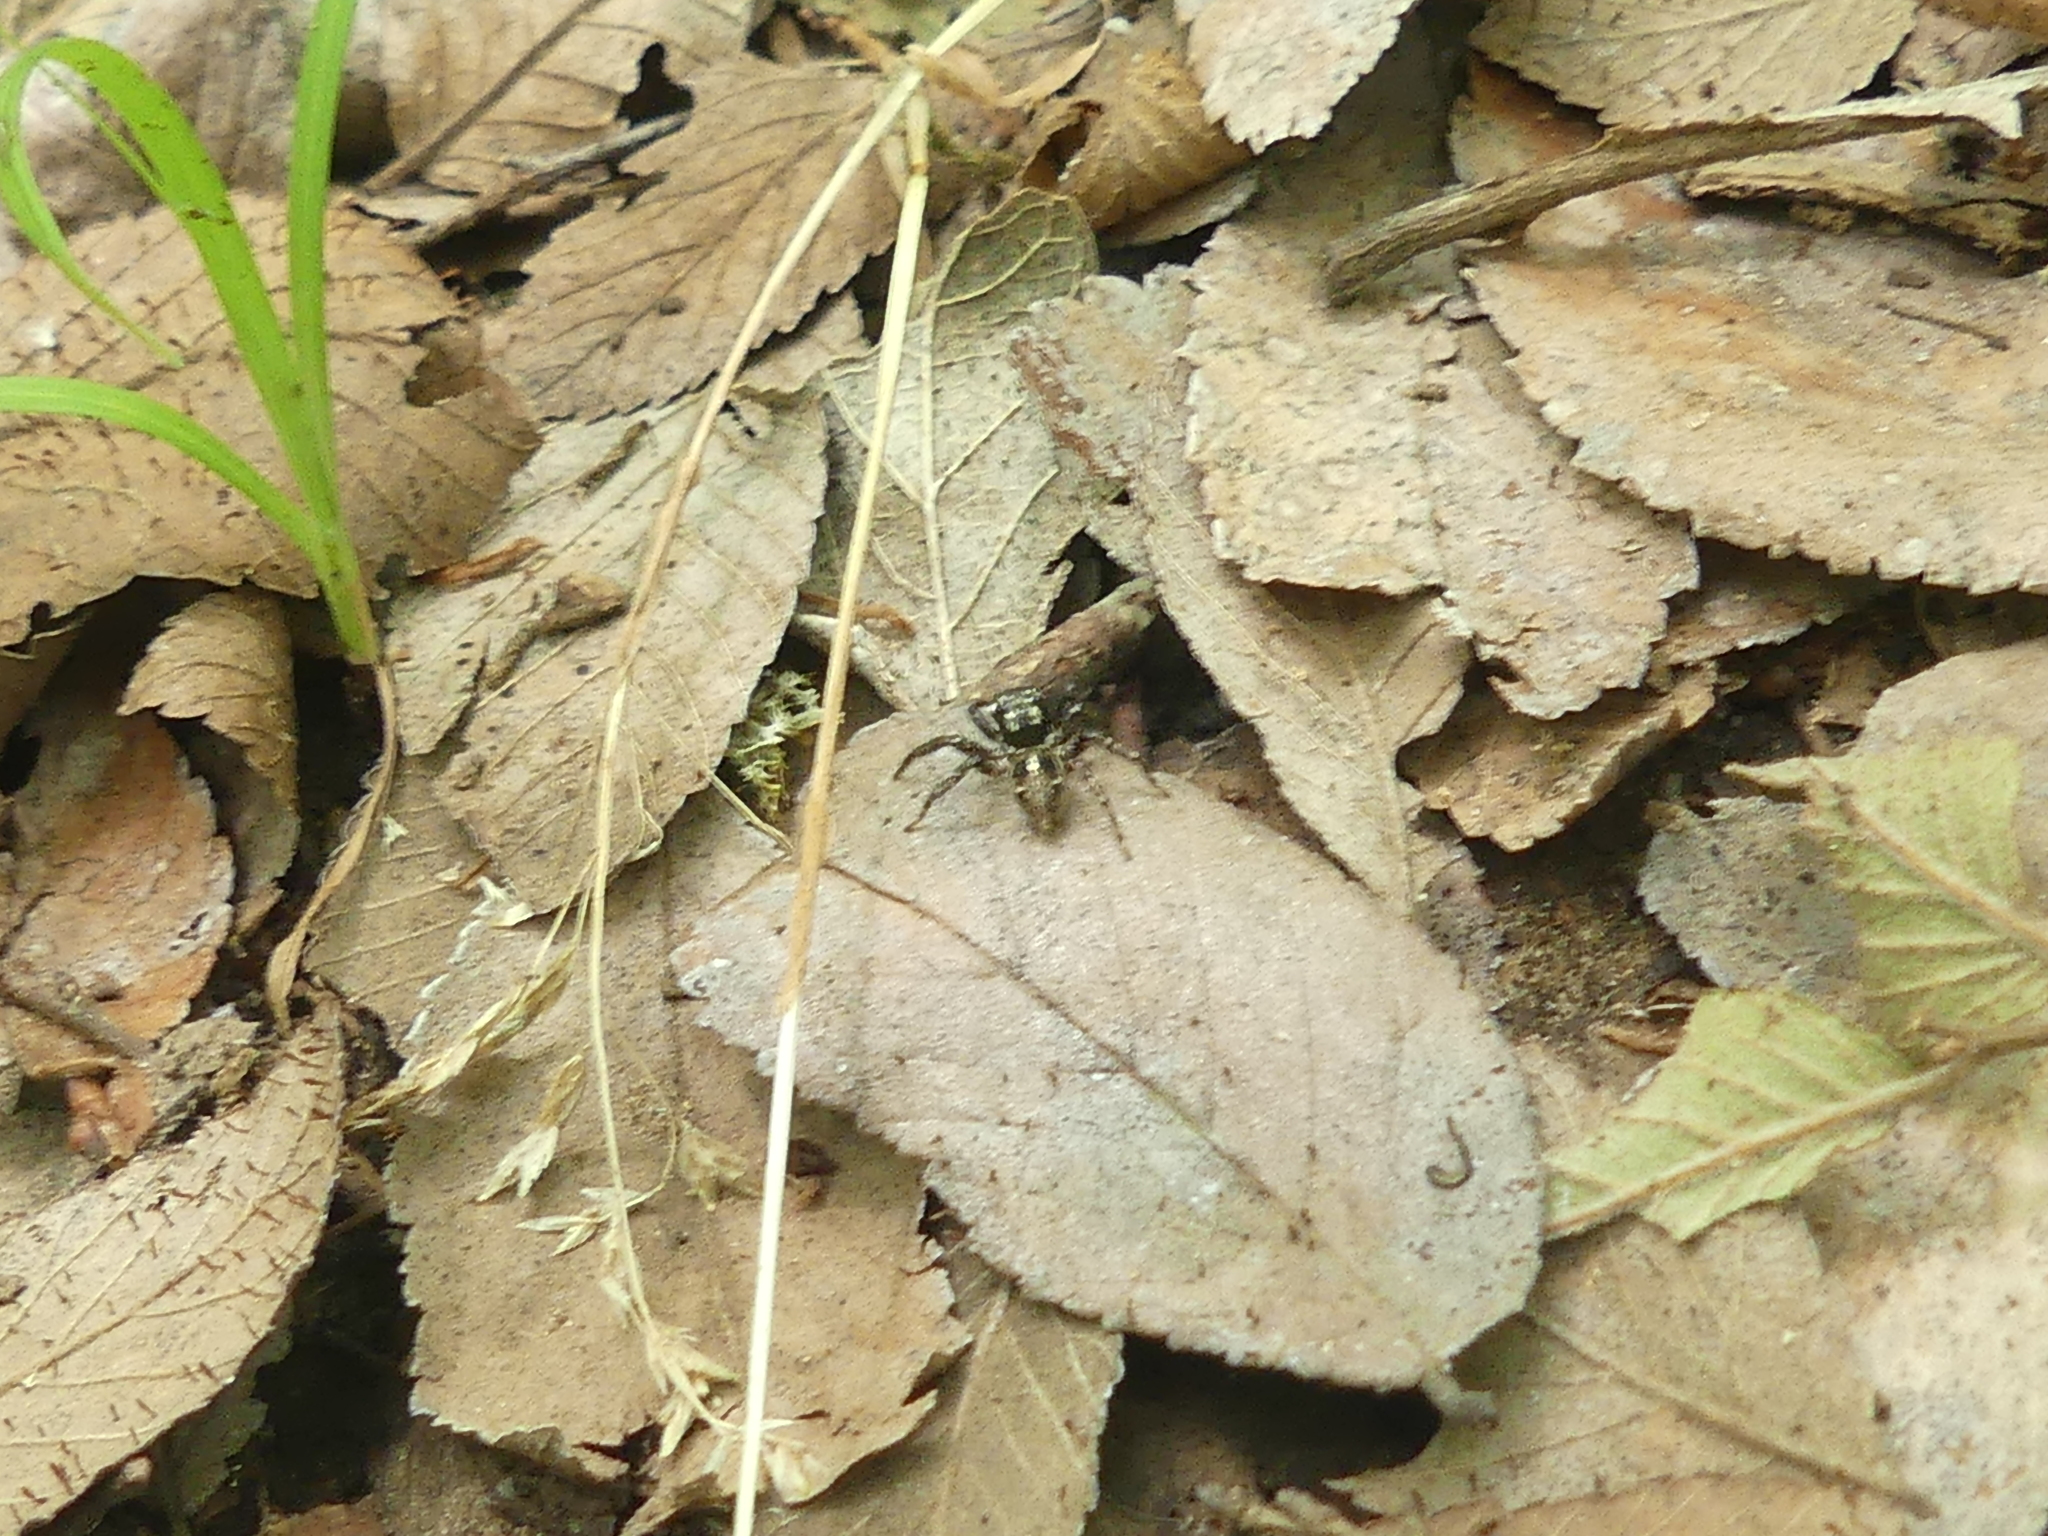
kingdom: Animalia
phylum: Arthropoda
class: Arachnida
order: Araneae
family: Salticidae
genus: Anasaitis
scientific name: Anasaitis canosa
